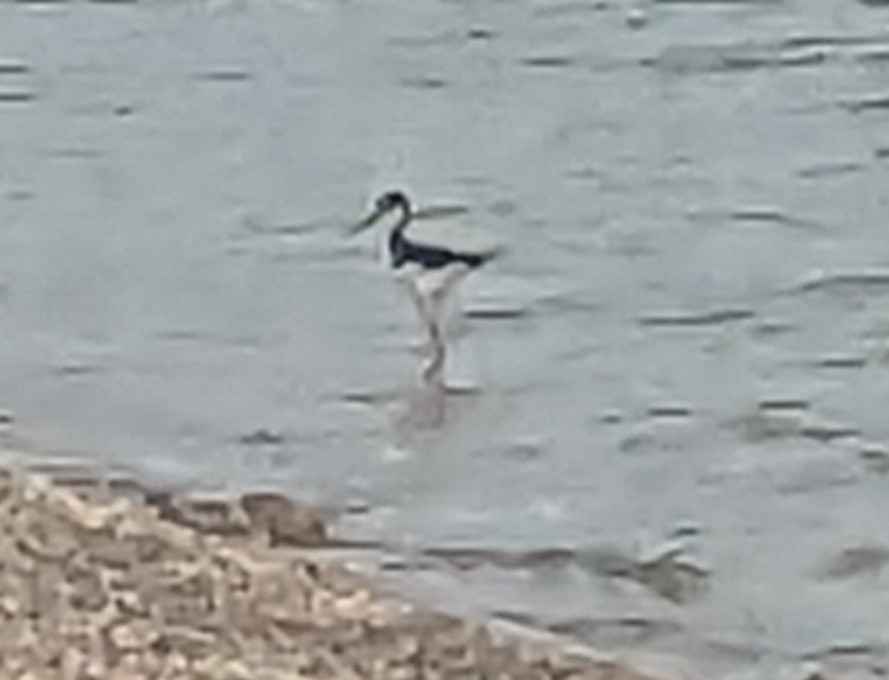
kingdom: Animalia
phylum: Chordata
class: Aves
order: Charadriiformes
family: Recurvirostridae
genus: Himantopus
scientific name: Himantopus mexicanus
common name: Black-necked stilt
